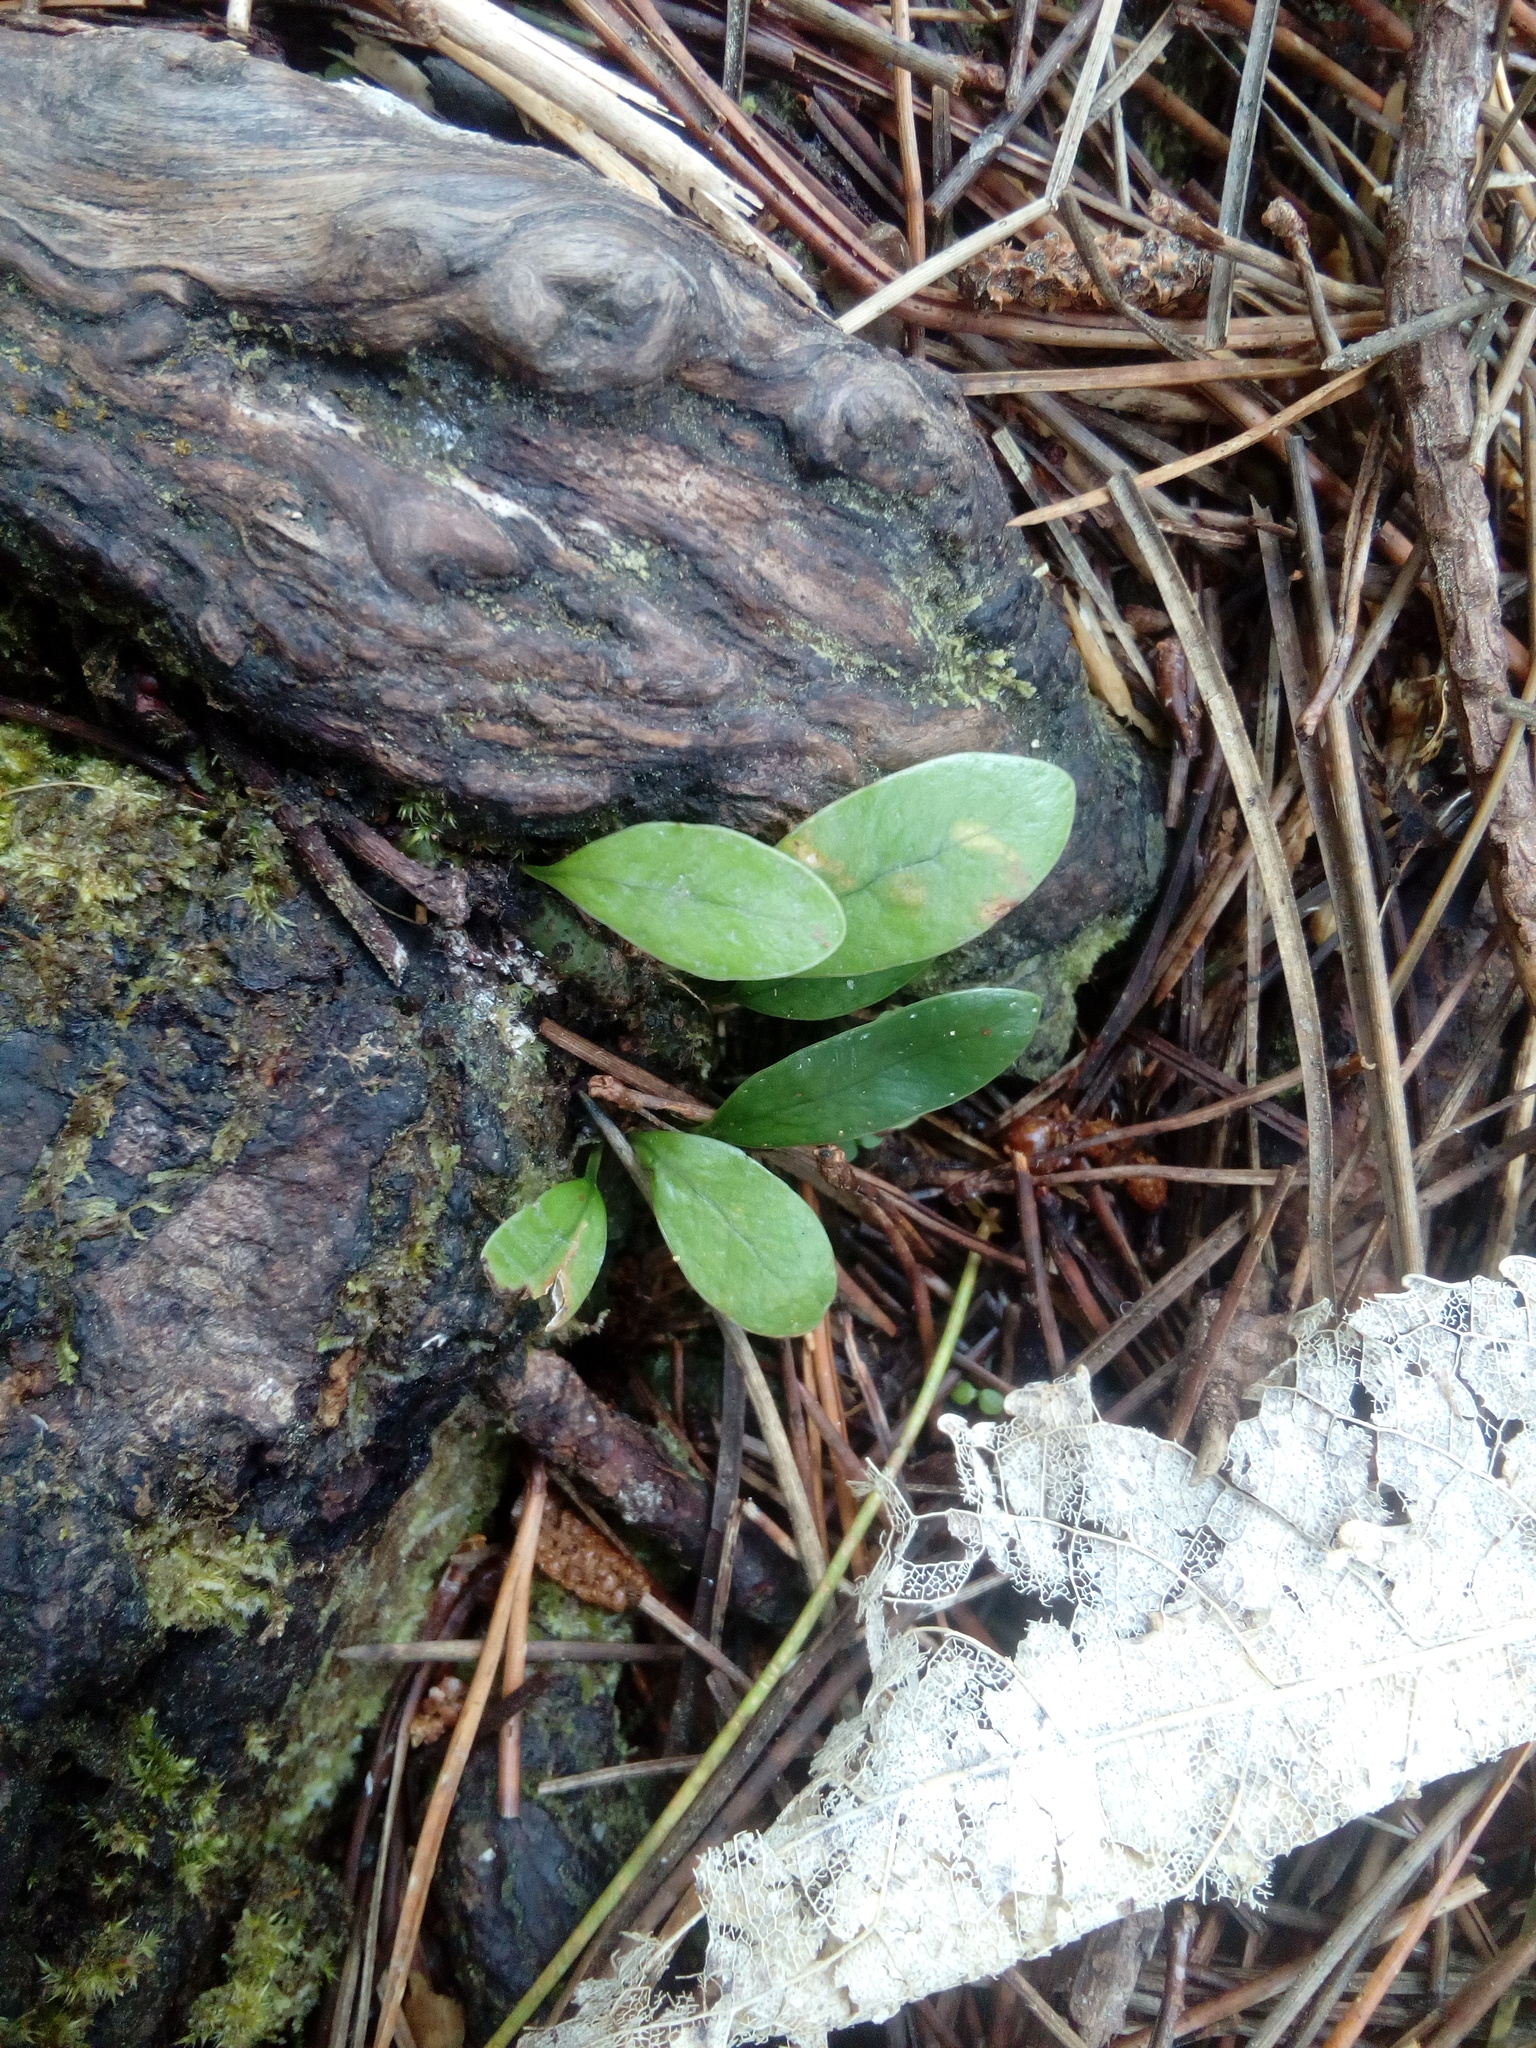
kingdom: Plantae
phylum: Tracheophyta
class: Polypodiopsida
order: Polypodiales
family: Polypodiaceae
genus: Lecanopteris
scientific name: Lecanopteris pustulata
